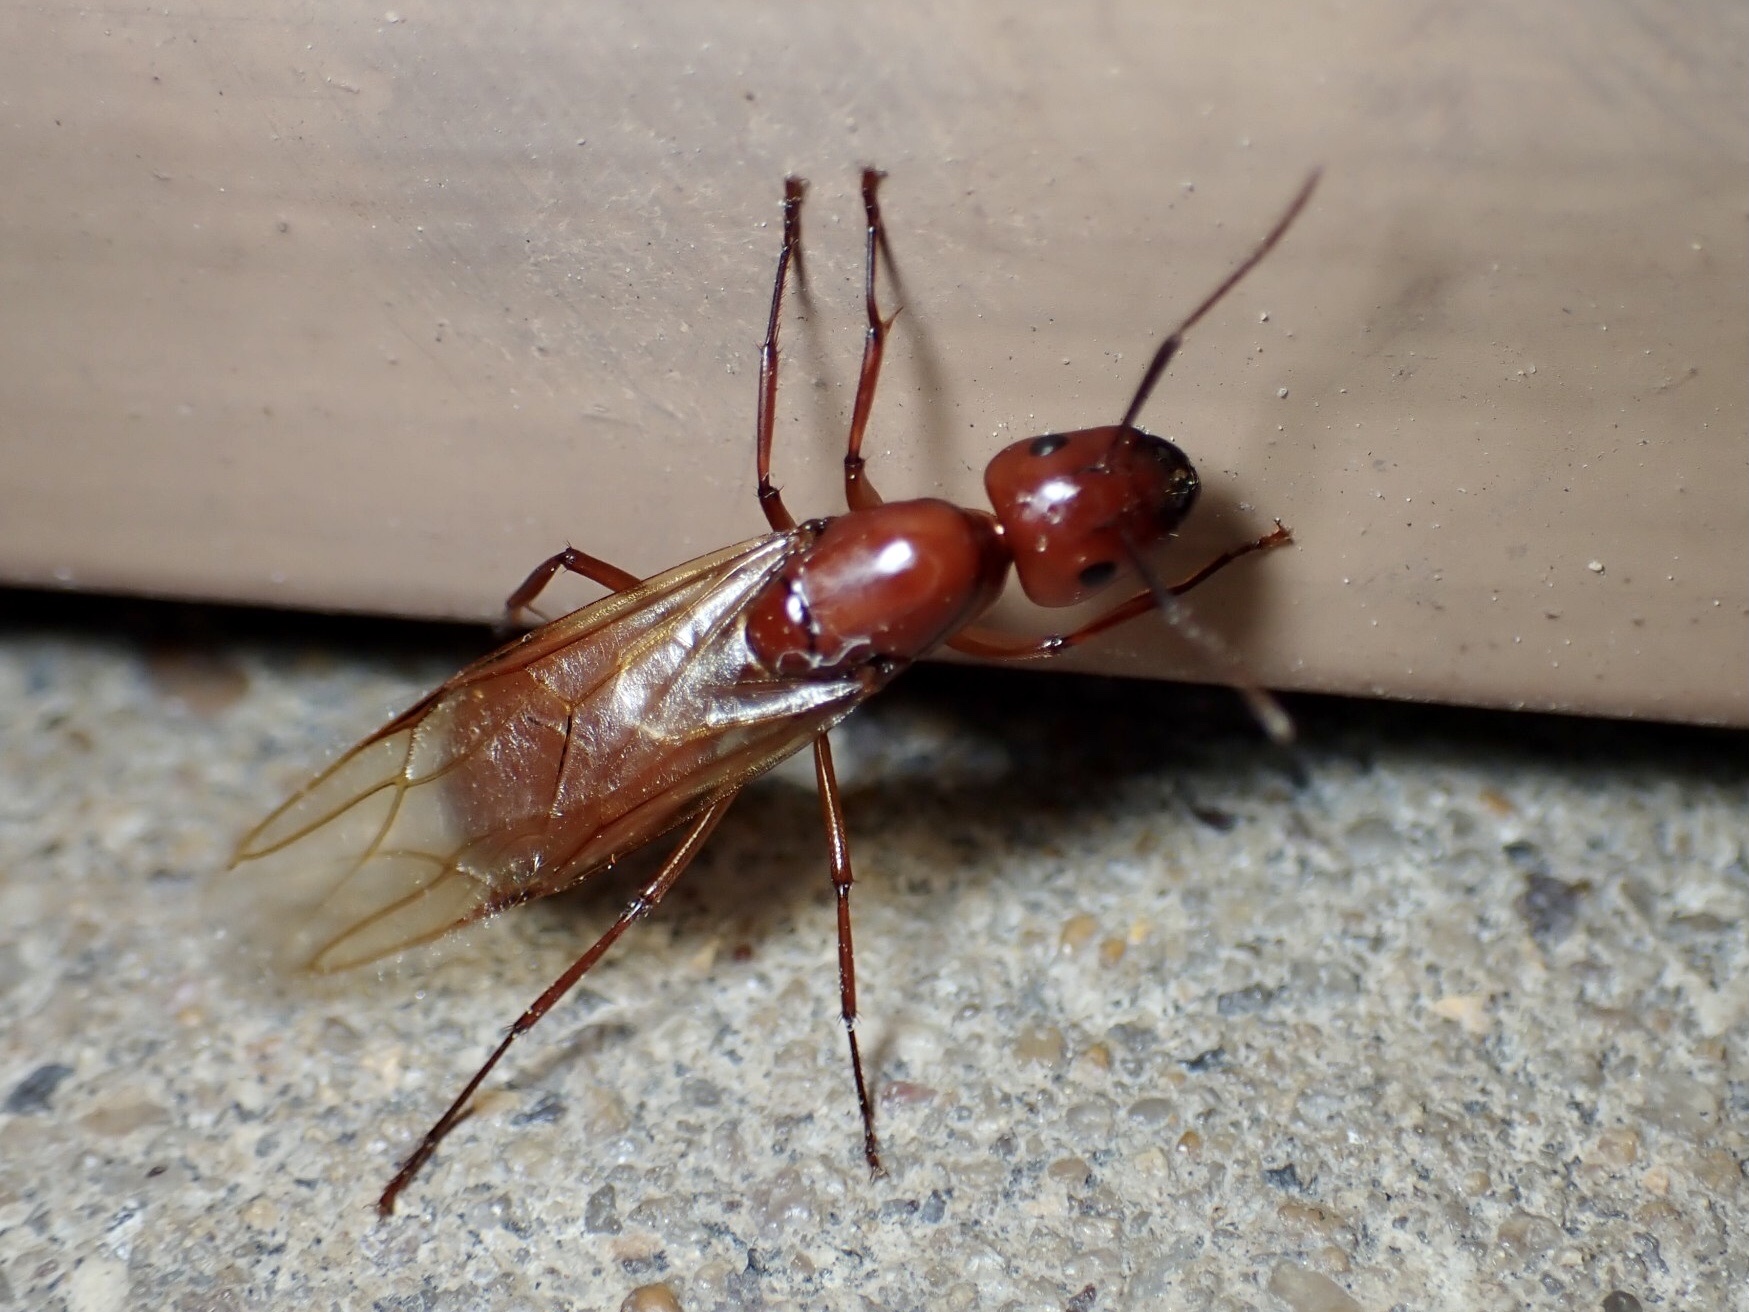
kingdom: Animalia
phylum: Arthropoda
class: Insecta
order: Hymenoptera
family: Formicidae
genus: Camponotus
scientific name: Camponotus castaneus
